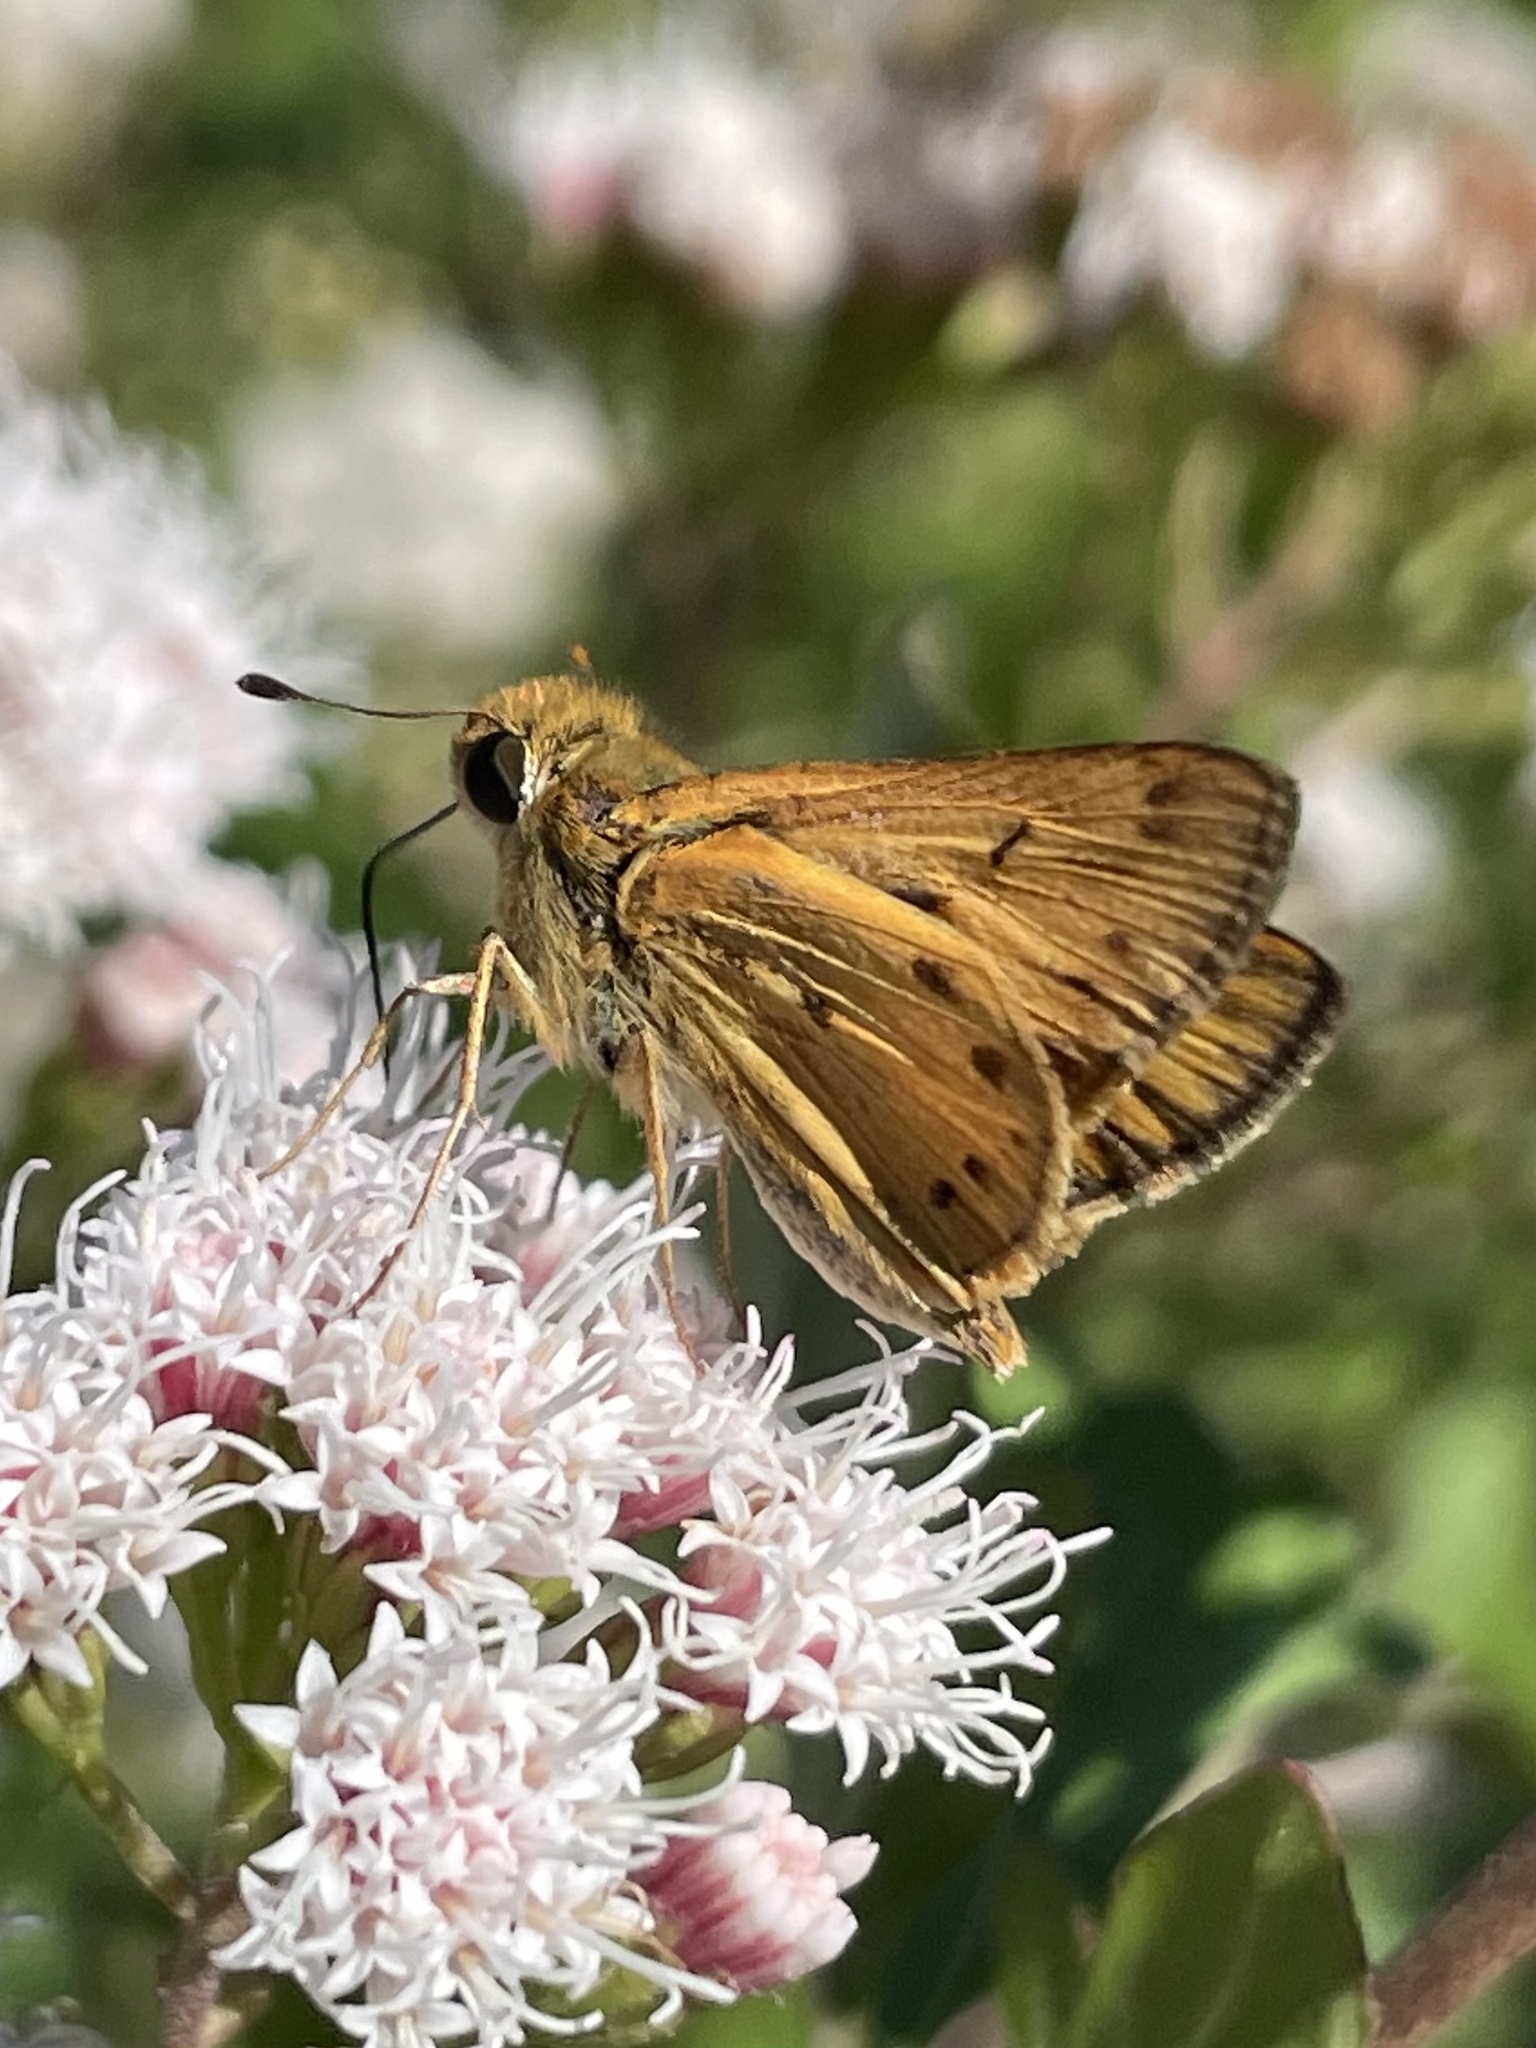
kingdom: Animalia
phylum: Arthropoda
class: Insecta
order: Lepidoptera
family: Hesperiidae
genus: Hylephila
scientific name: Hylephila phyleus
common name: Fiery skipper
